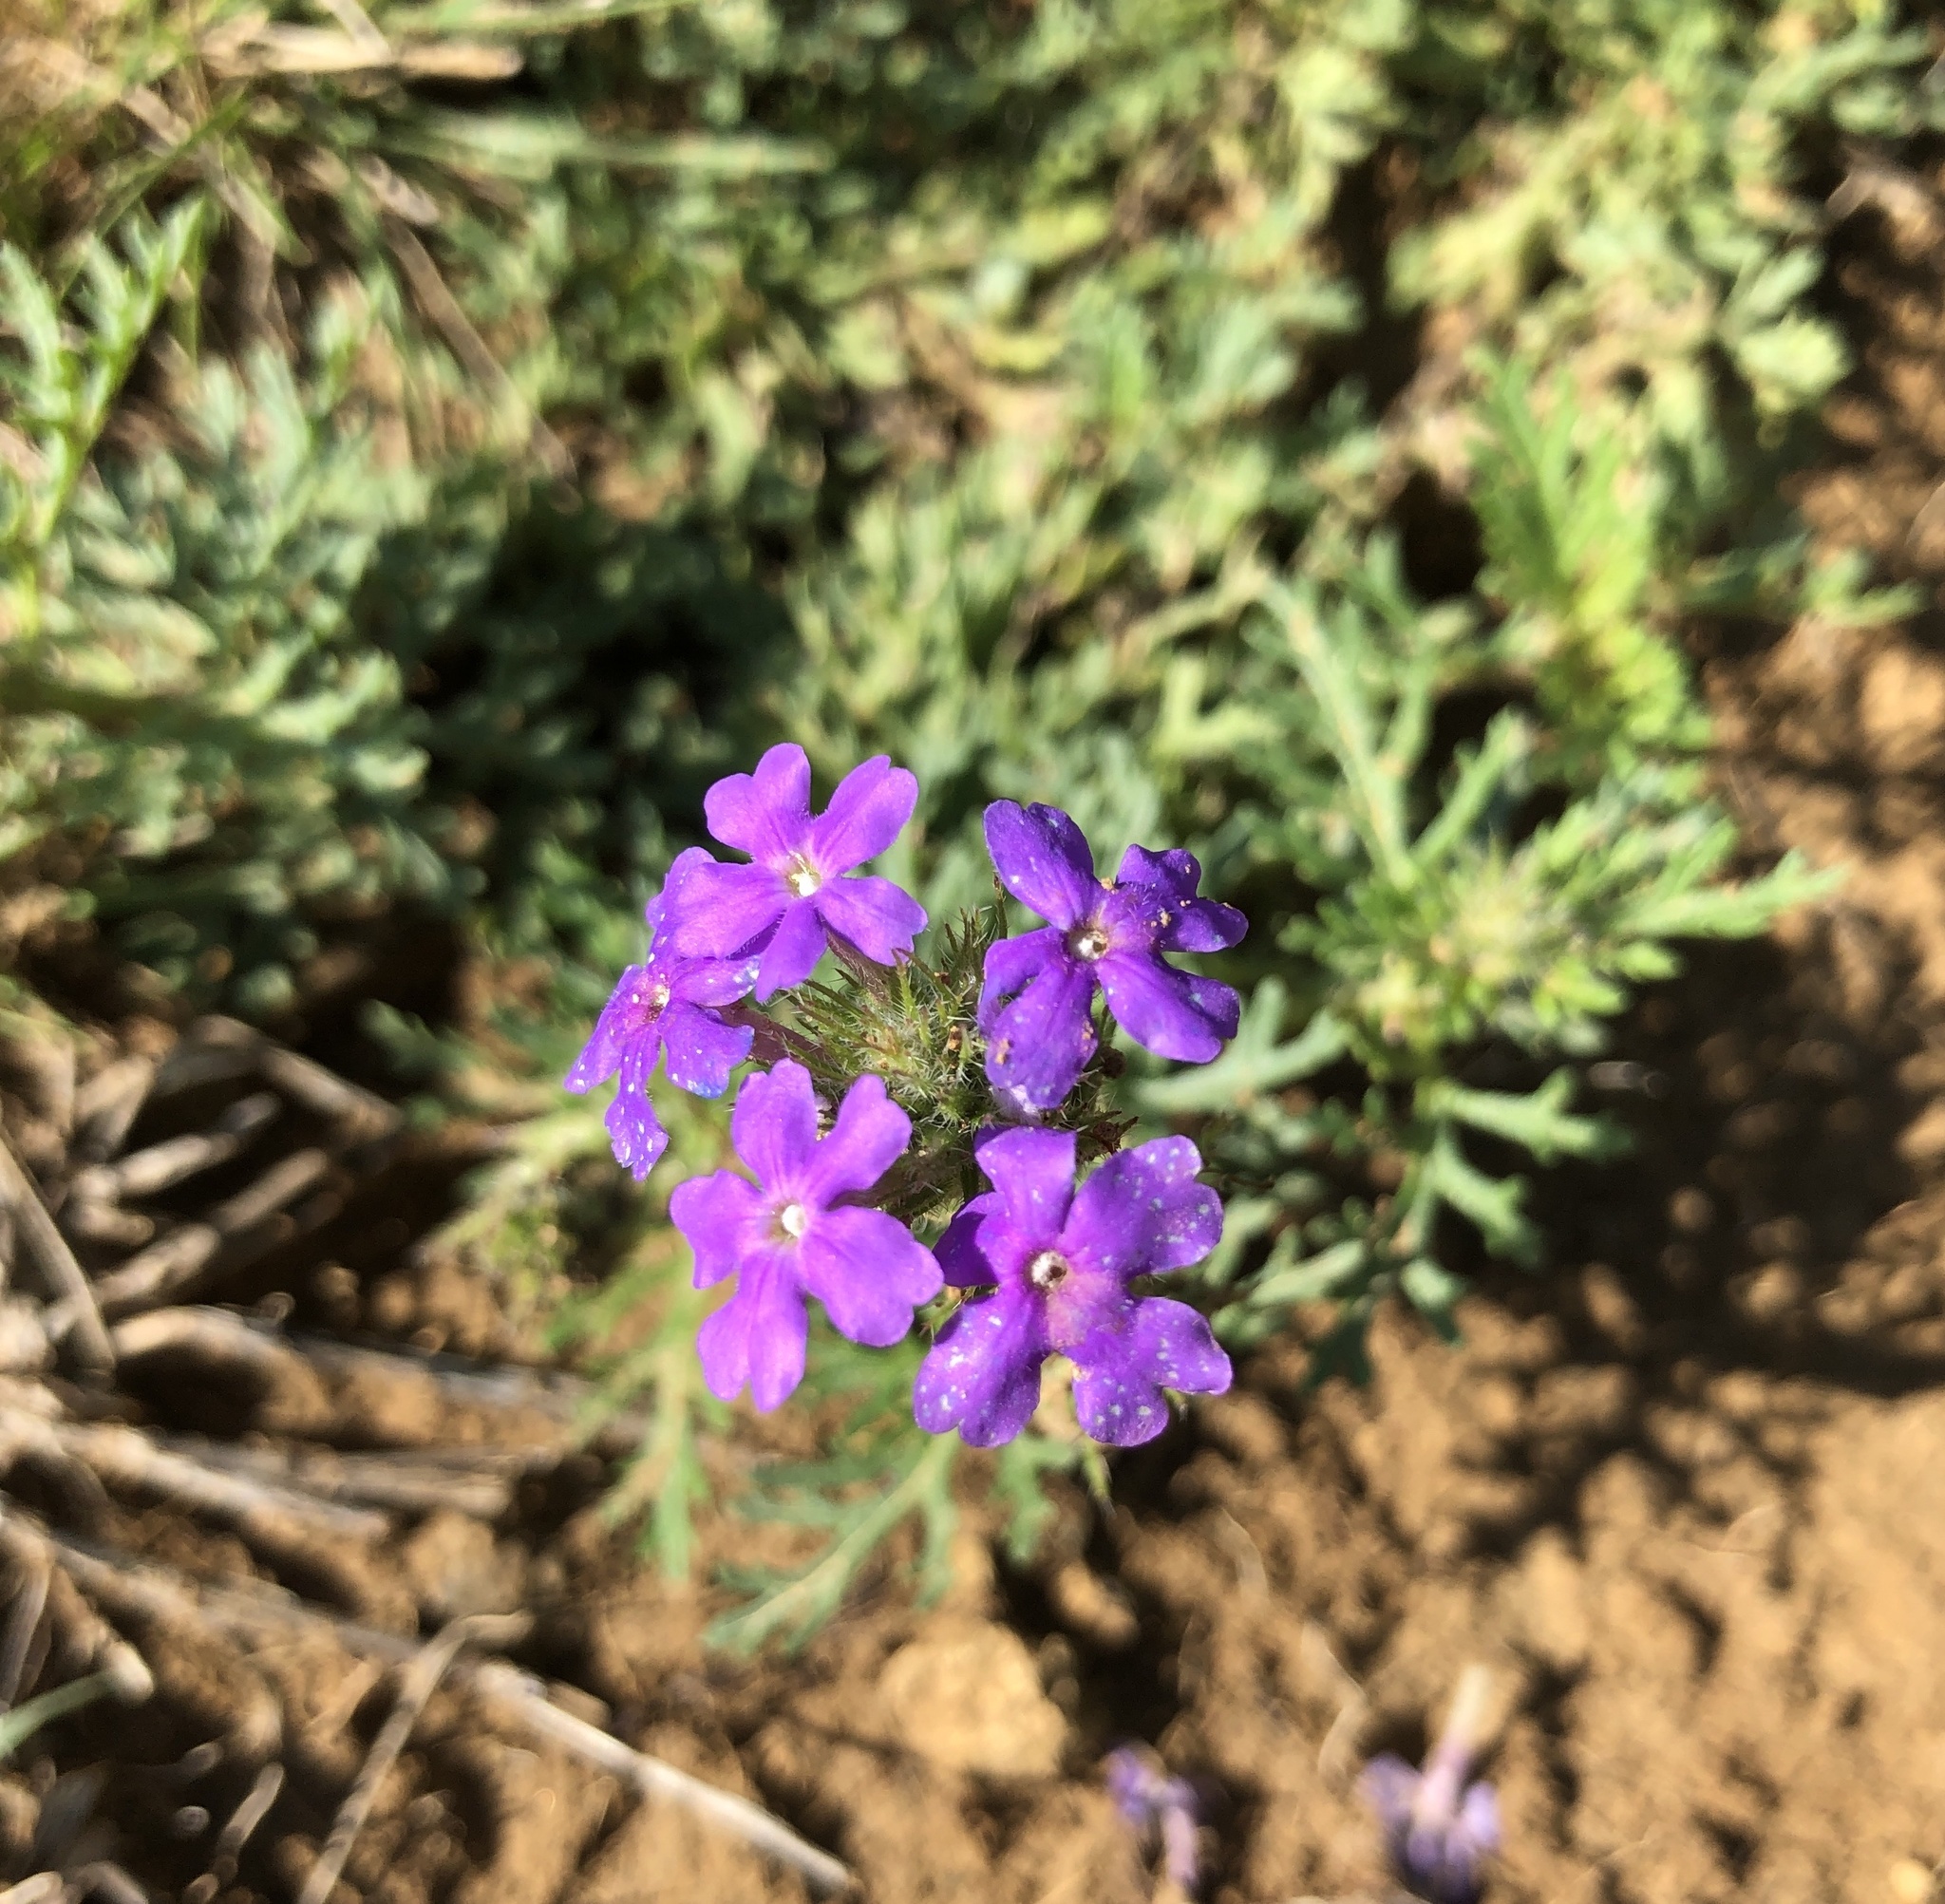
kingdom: Plantae
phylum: Tracheophyta
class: Magnoliopsida
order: Lamiales
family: Verbenaceae
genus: Verbena
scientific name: Verbena bipinnatifida
